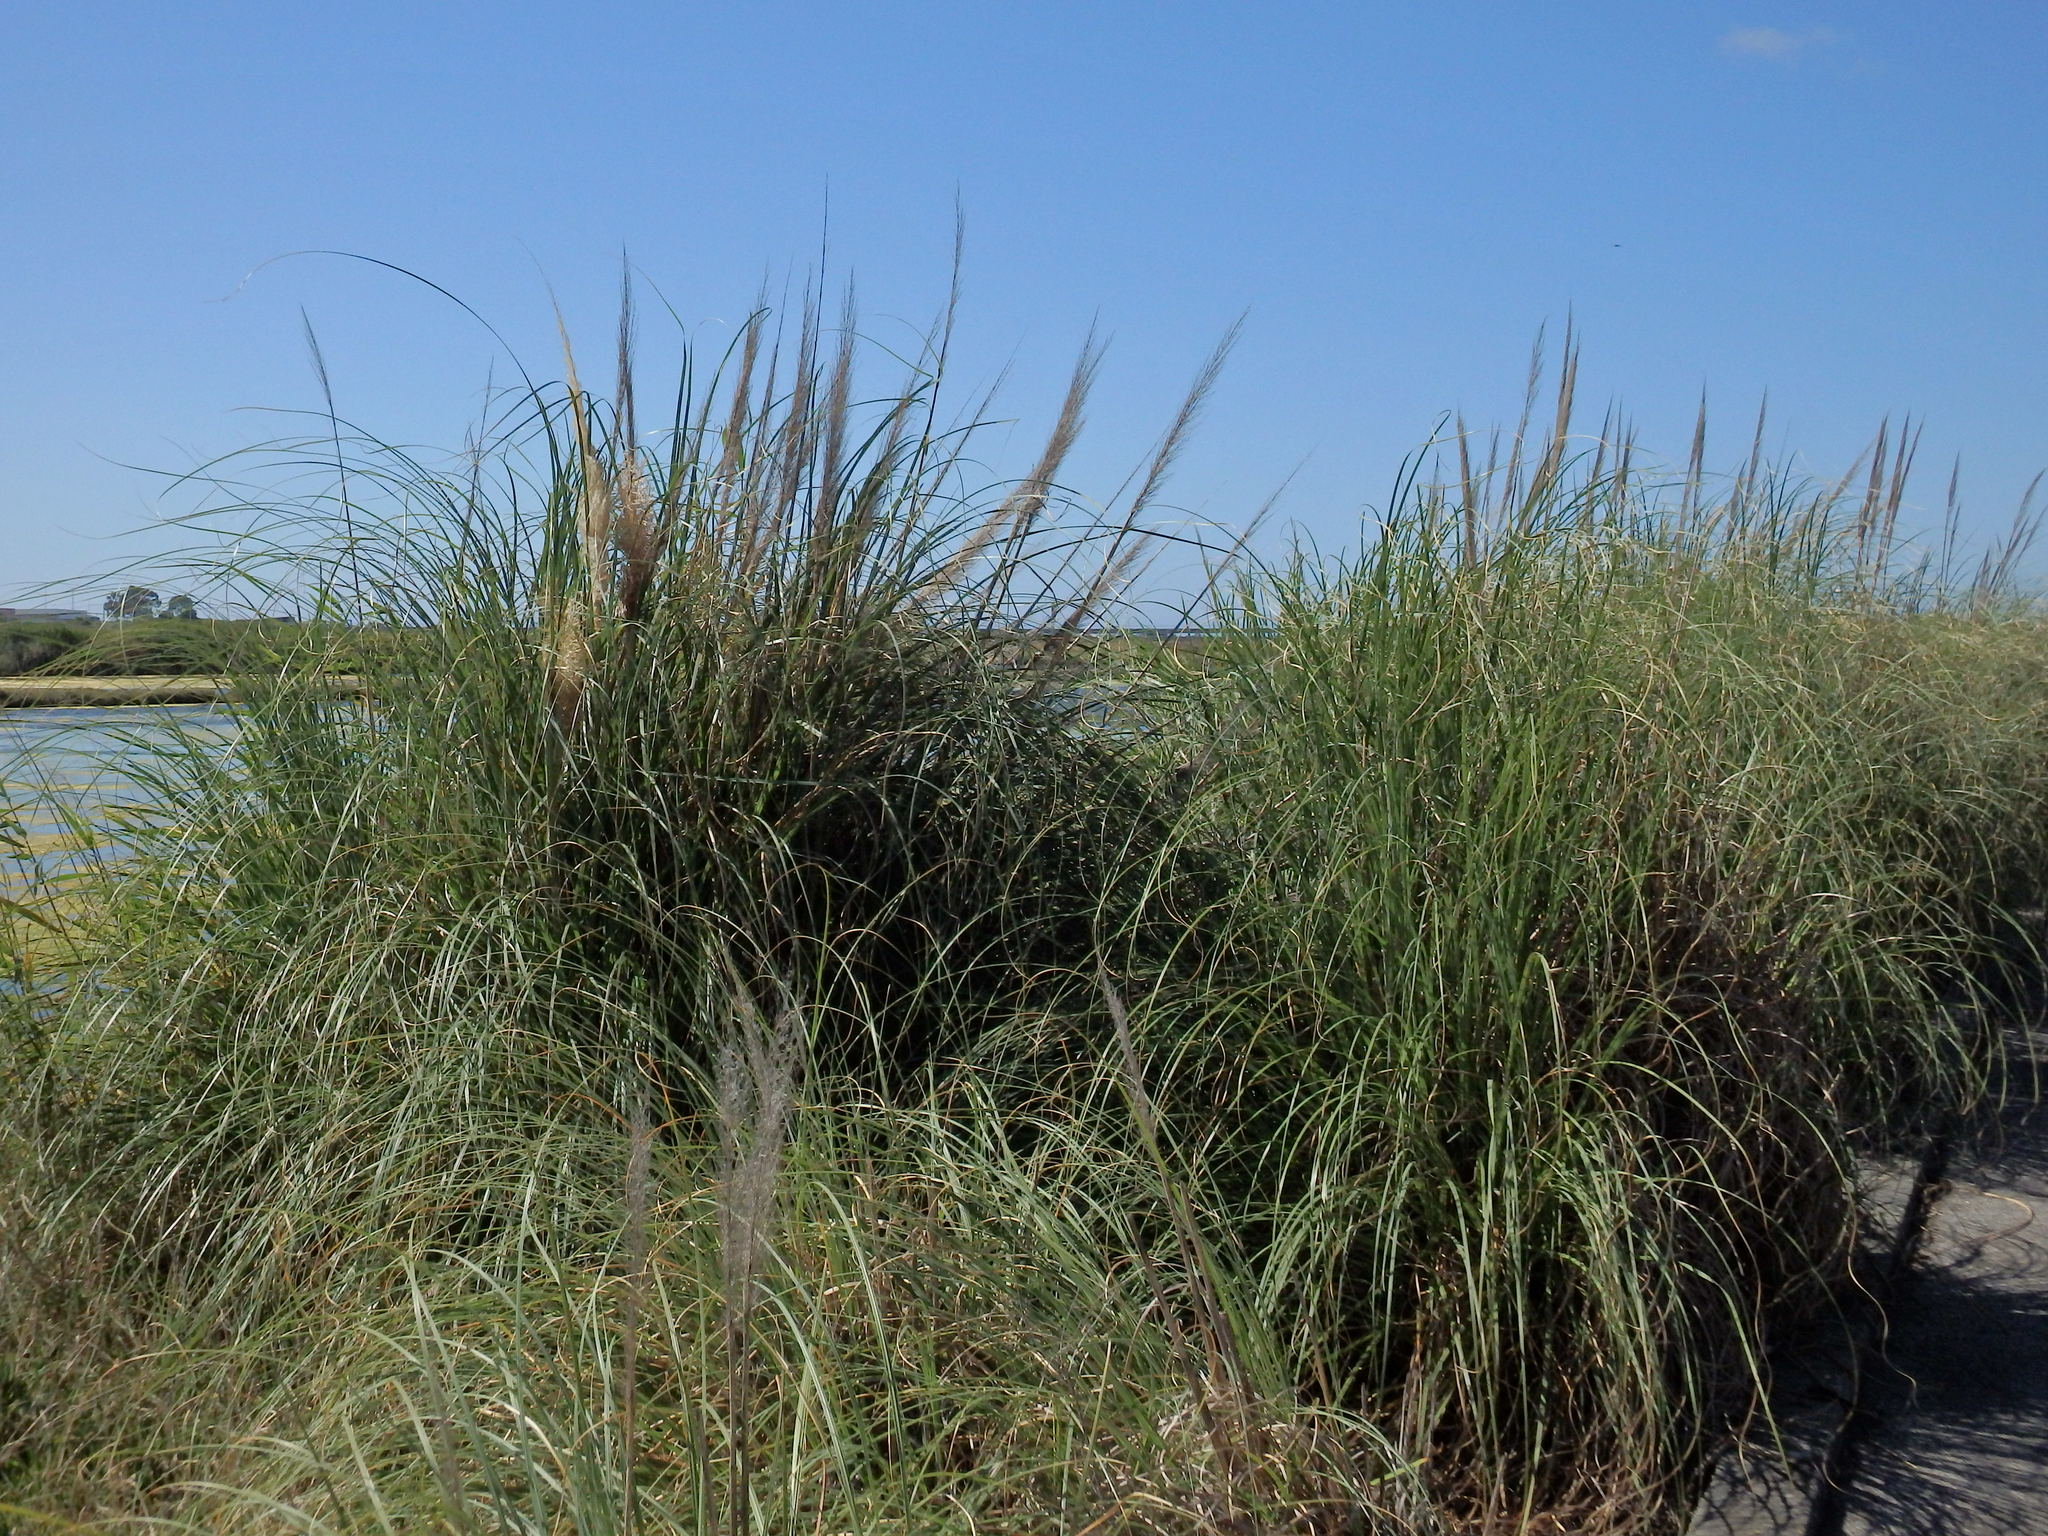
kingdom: Plantae
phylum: Tracheophyta
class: Liliopsida
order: Poales
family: Poaceae
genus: Cortaderia
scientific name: Cortaderia selloana
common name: Uruguayan pampas grass
